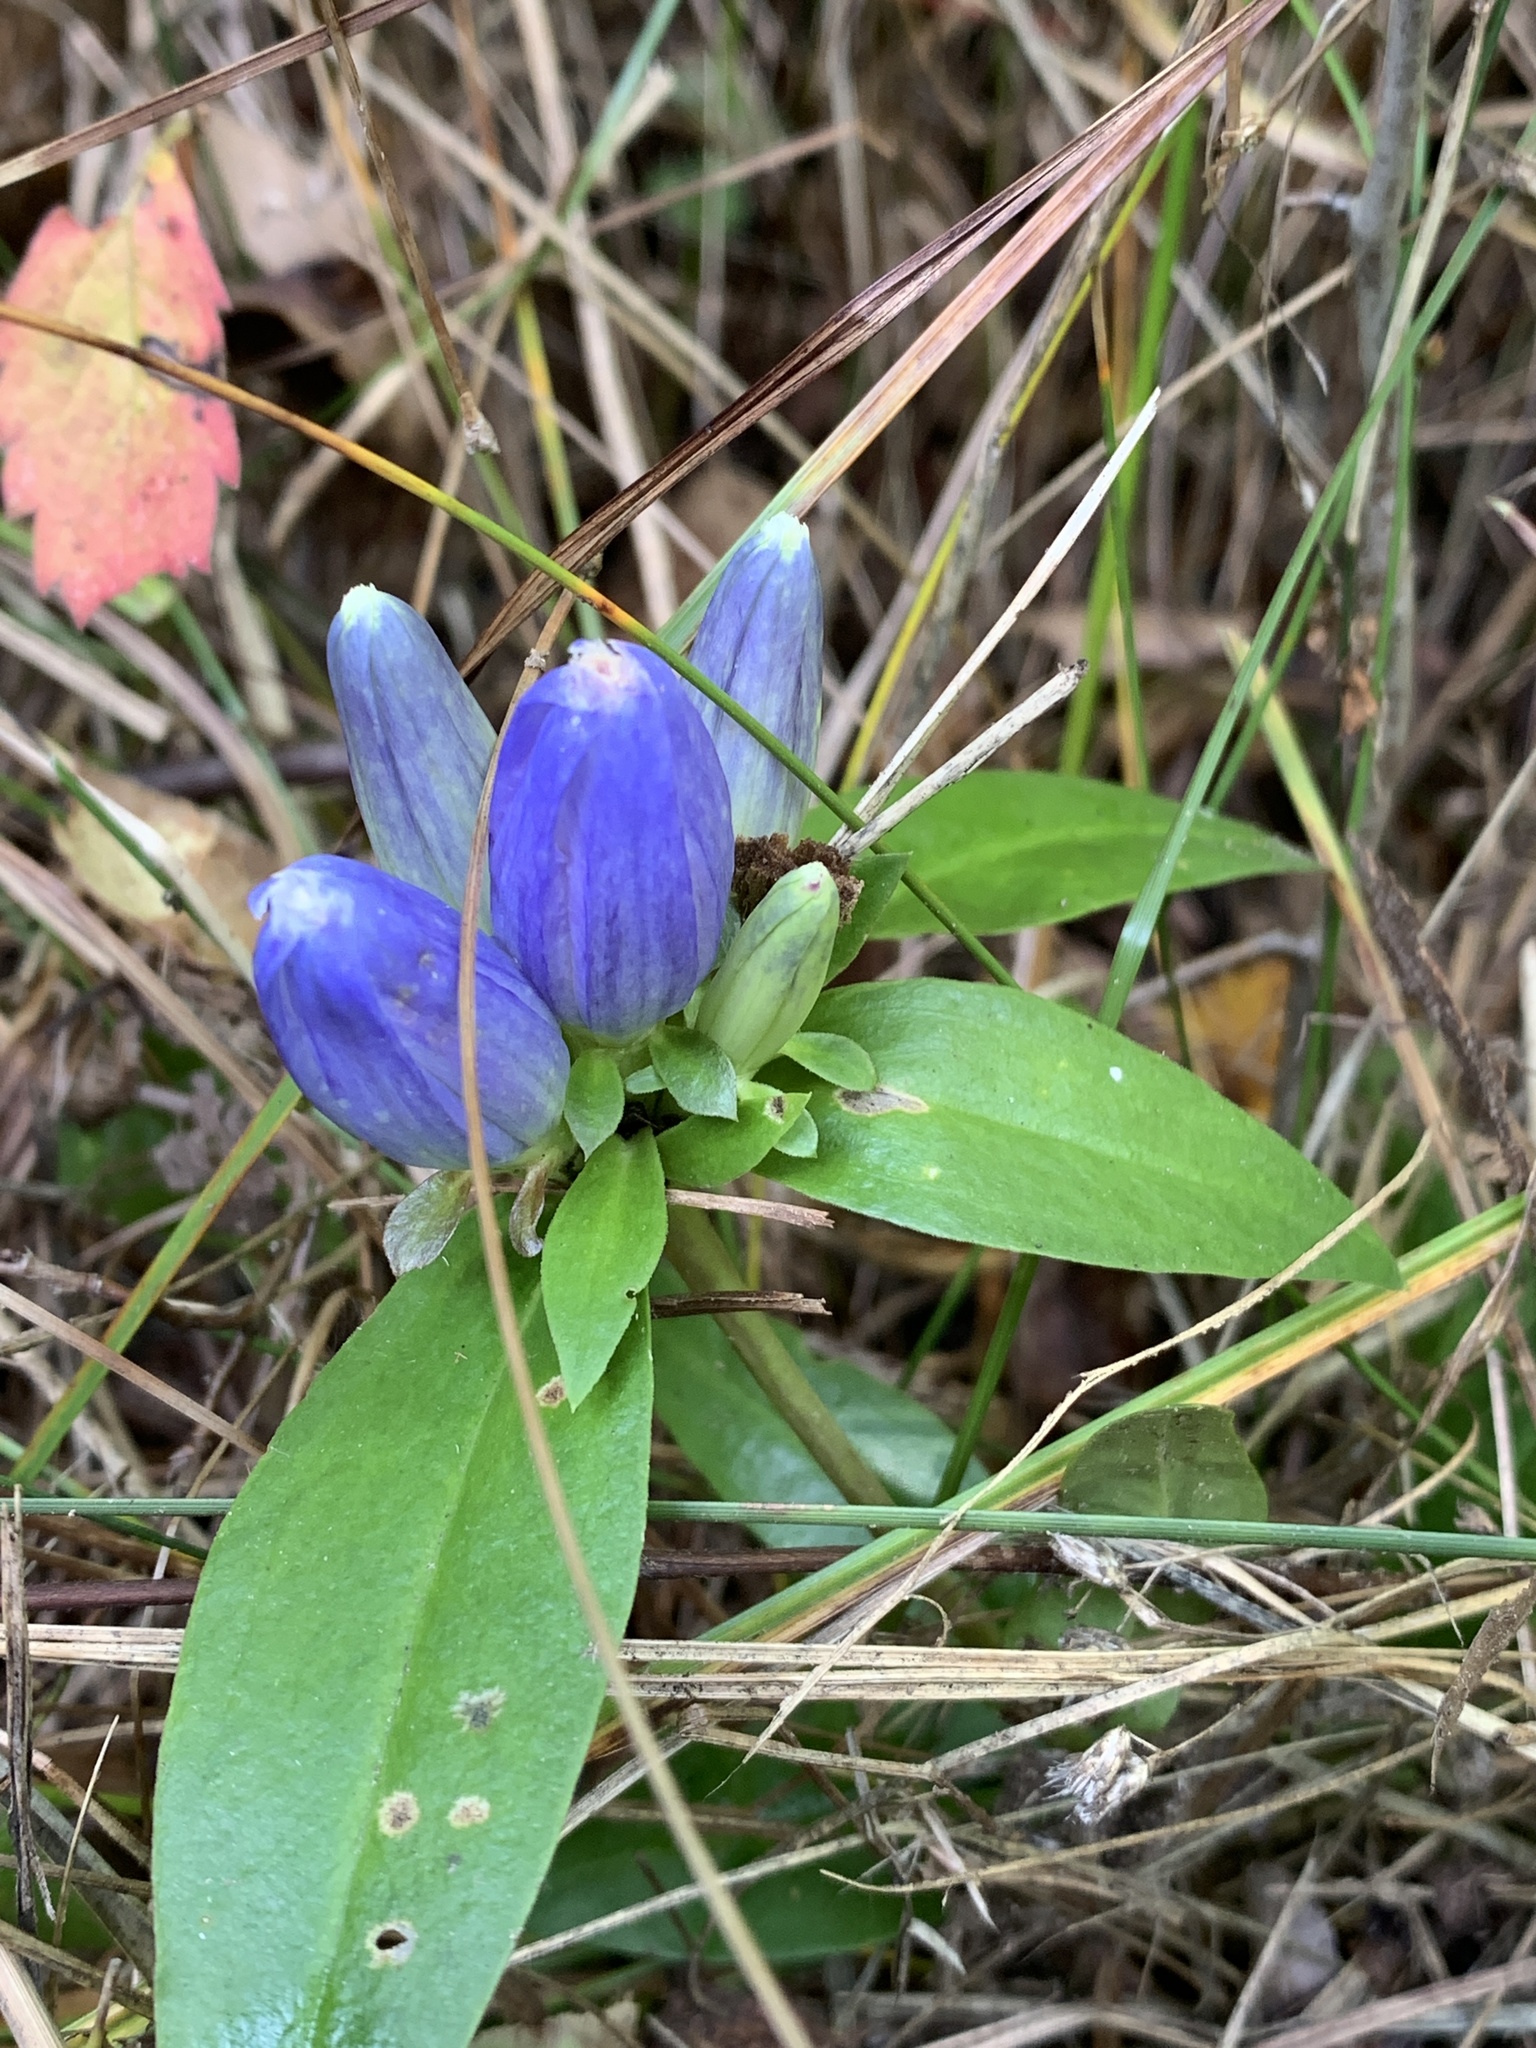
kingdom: Plantae
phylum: Tracheophyta
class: Magnoliopsida
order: Gentianales
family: Gentianaceae
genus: Gentiana
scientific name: Gentiana andrewsii
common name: Bottle gentian
